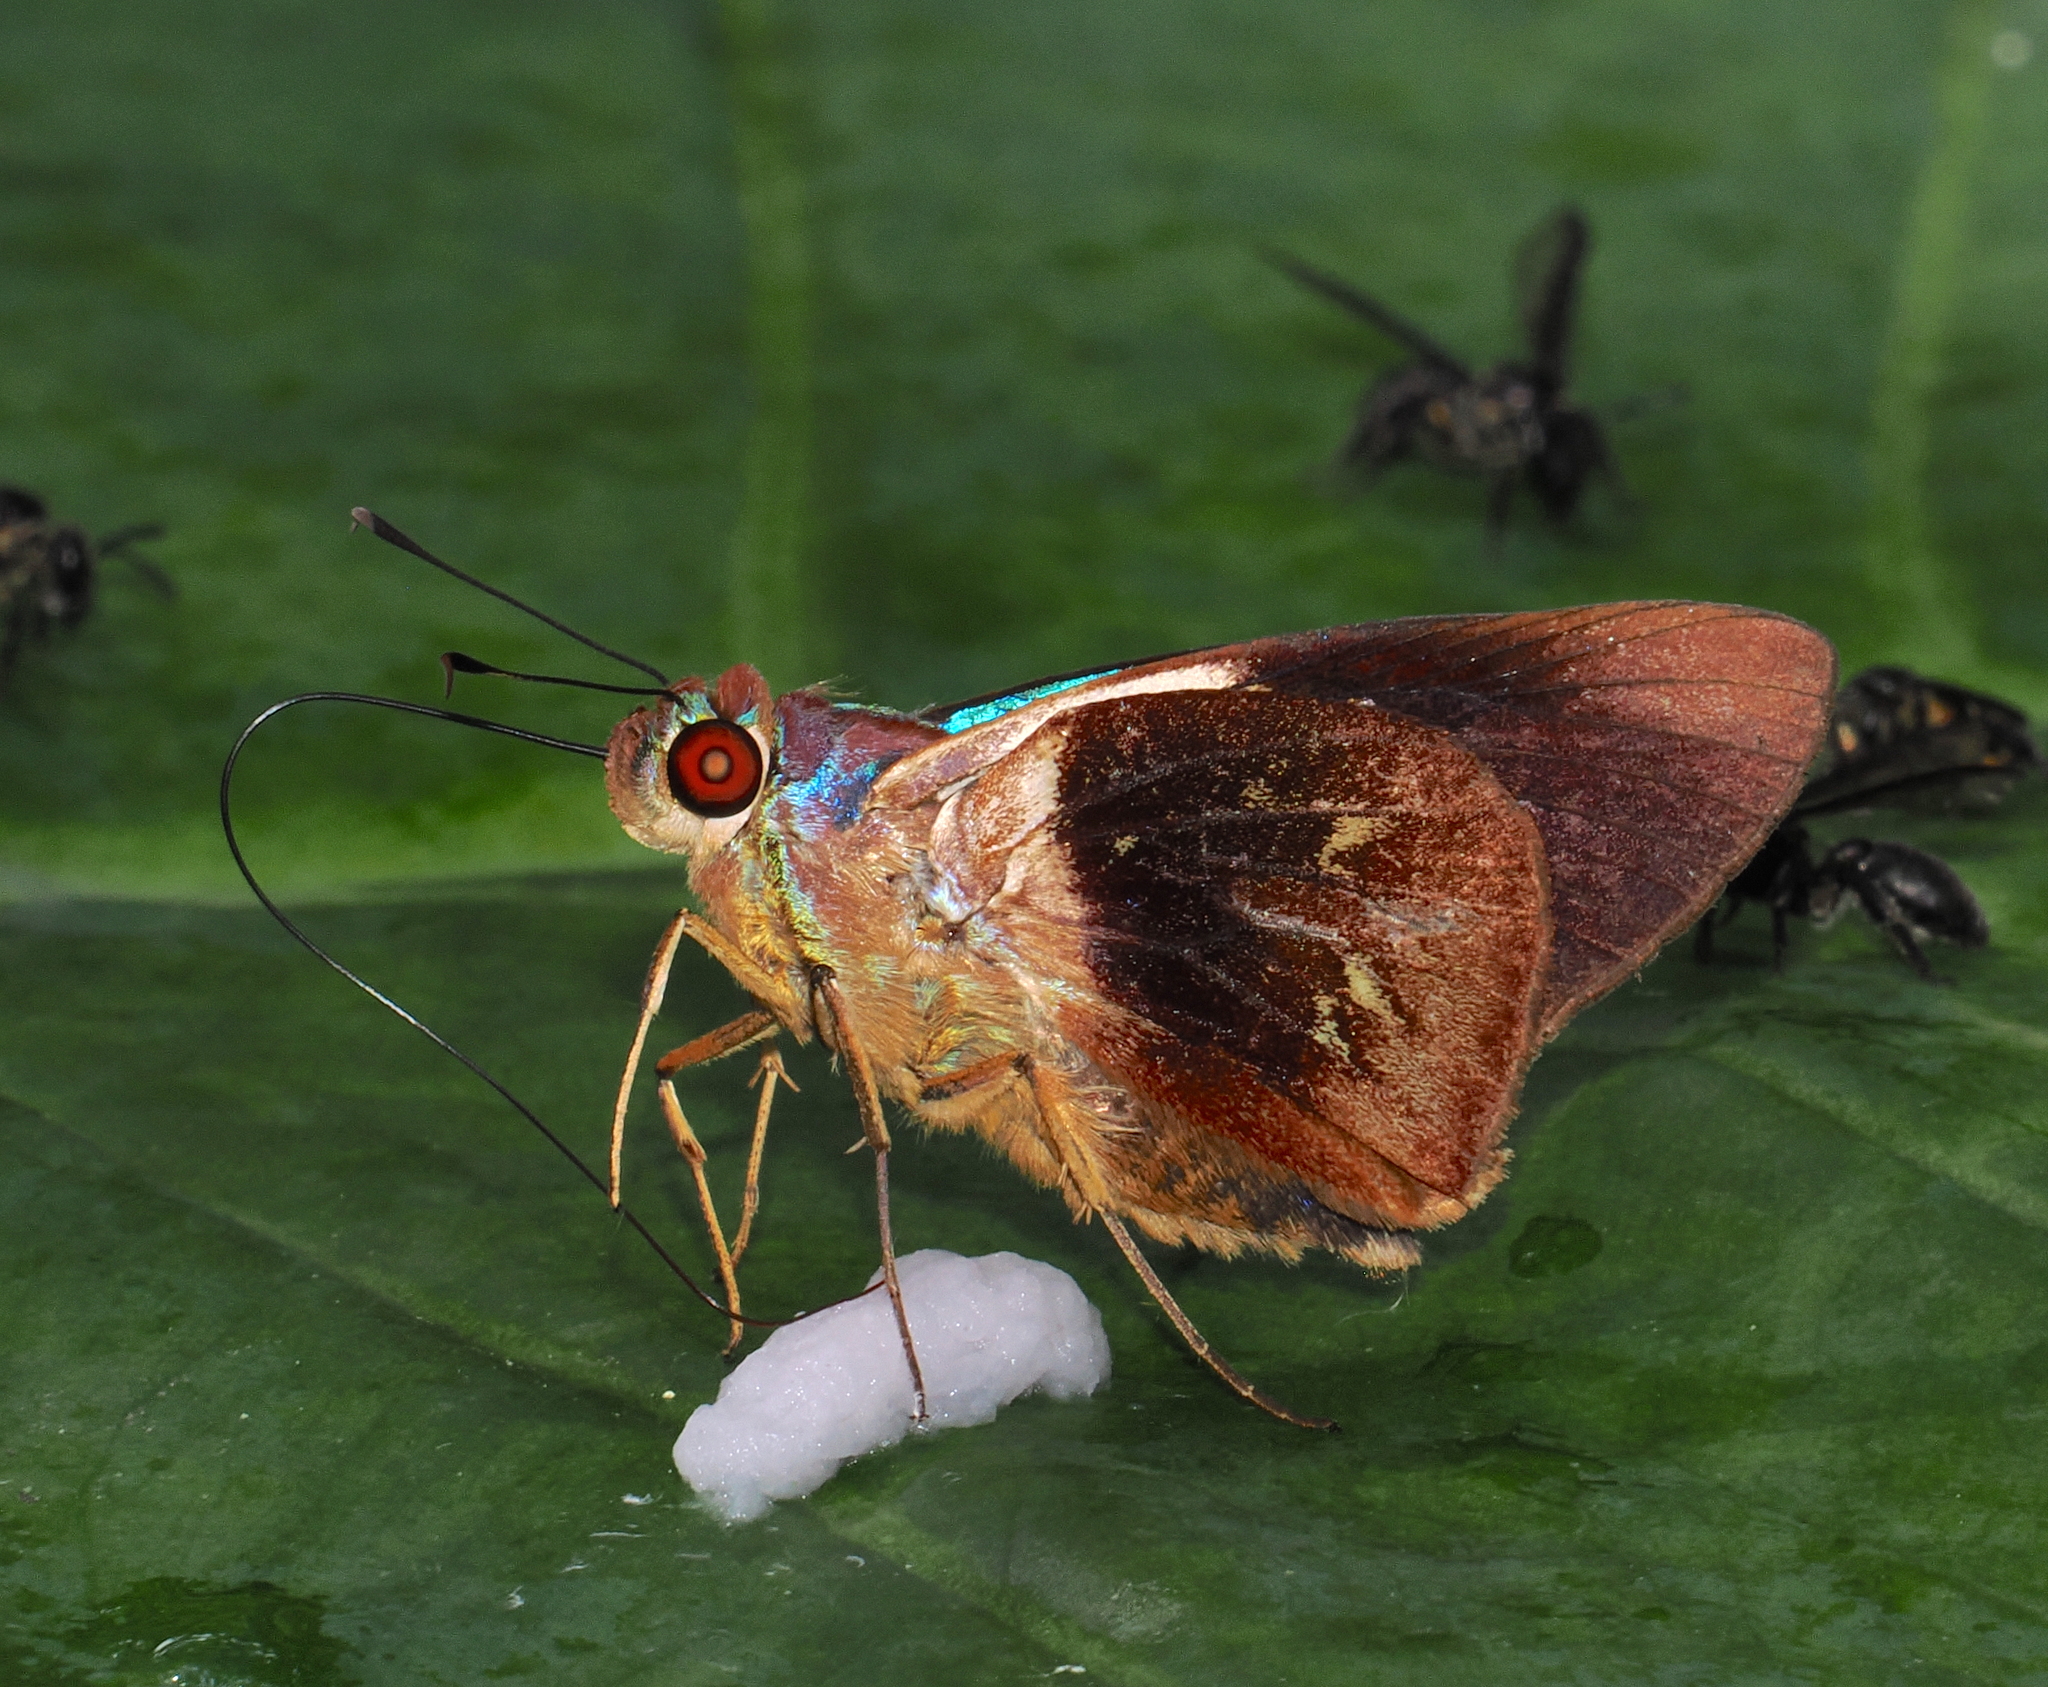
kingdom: Animalia
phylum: Arthropoda
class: Insecta
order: Lepidoptera
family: Hesperiidae
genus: Thracides
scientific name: Thracides phidon
